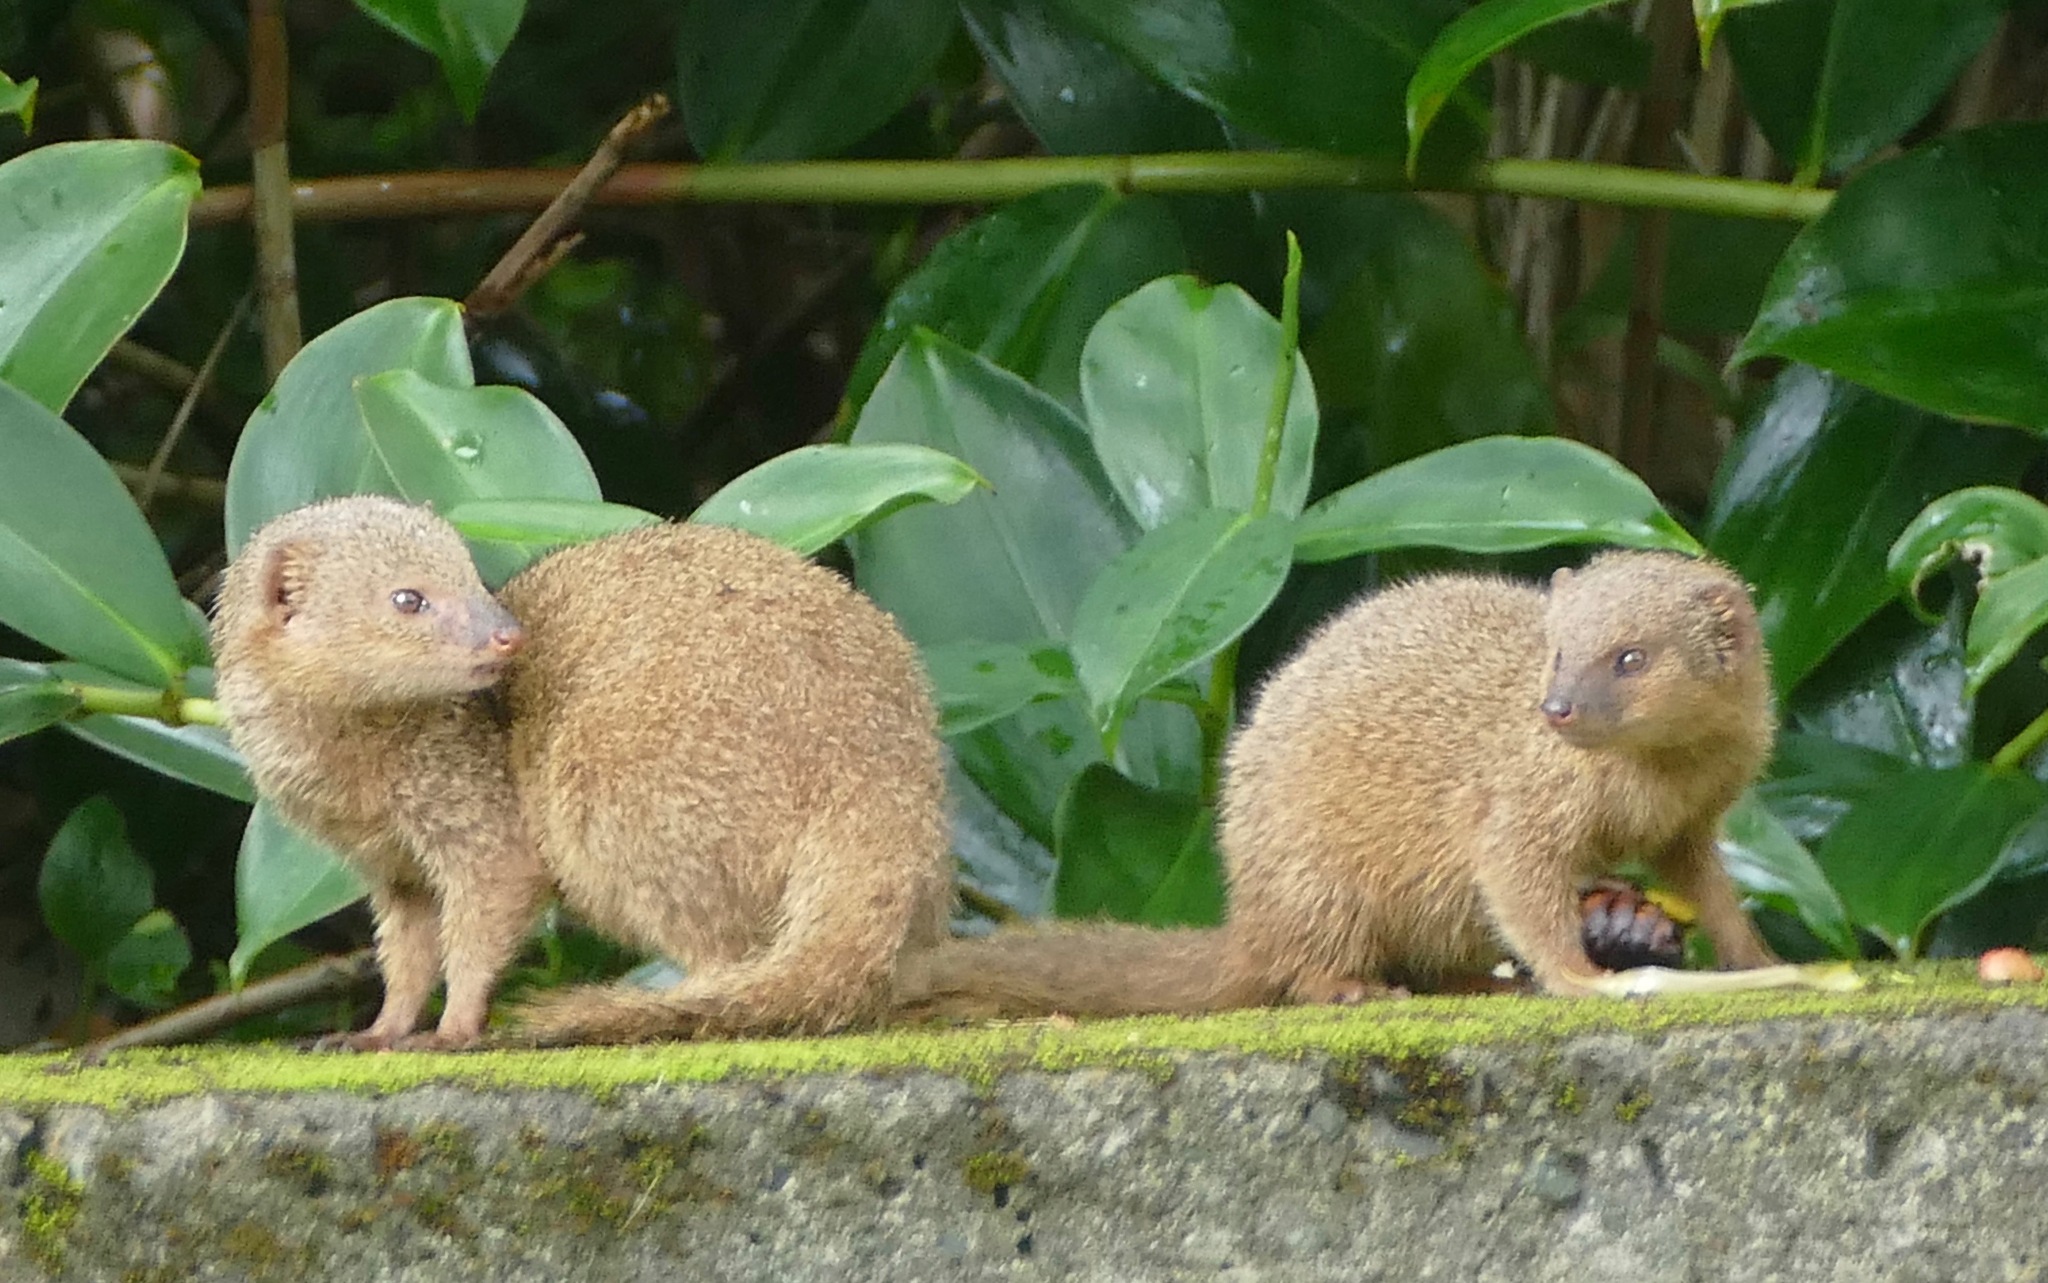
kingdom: Animalia
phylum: Chordata
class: Mammalia
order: Carnivora
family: Herpestidae
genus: Herpestes
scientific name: Herpestes javanicus
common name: Small asian mongoose
